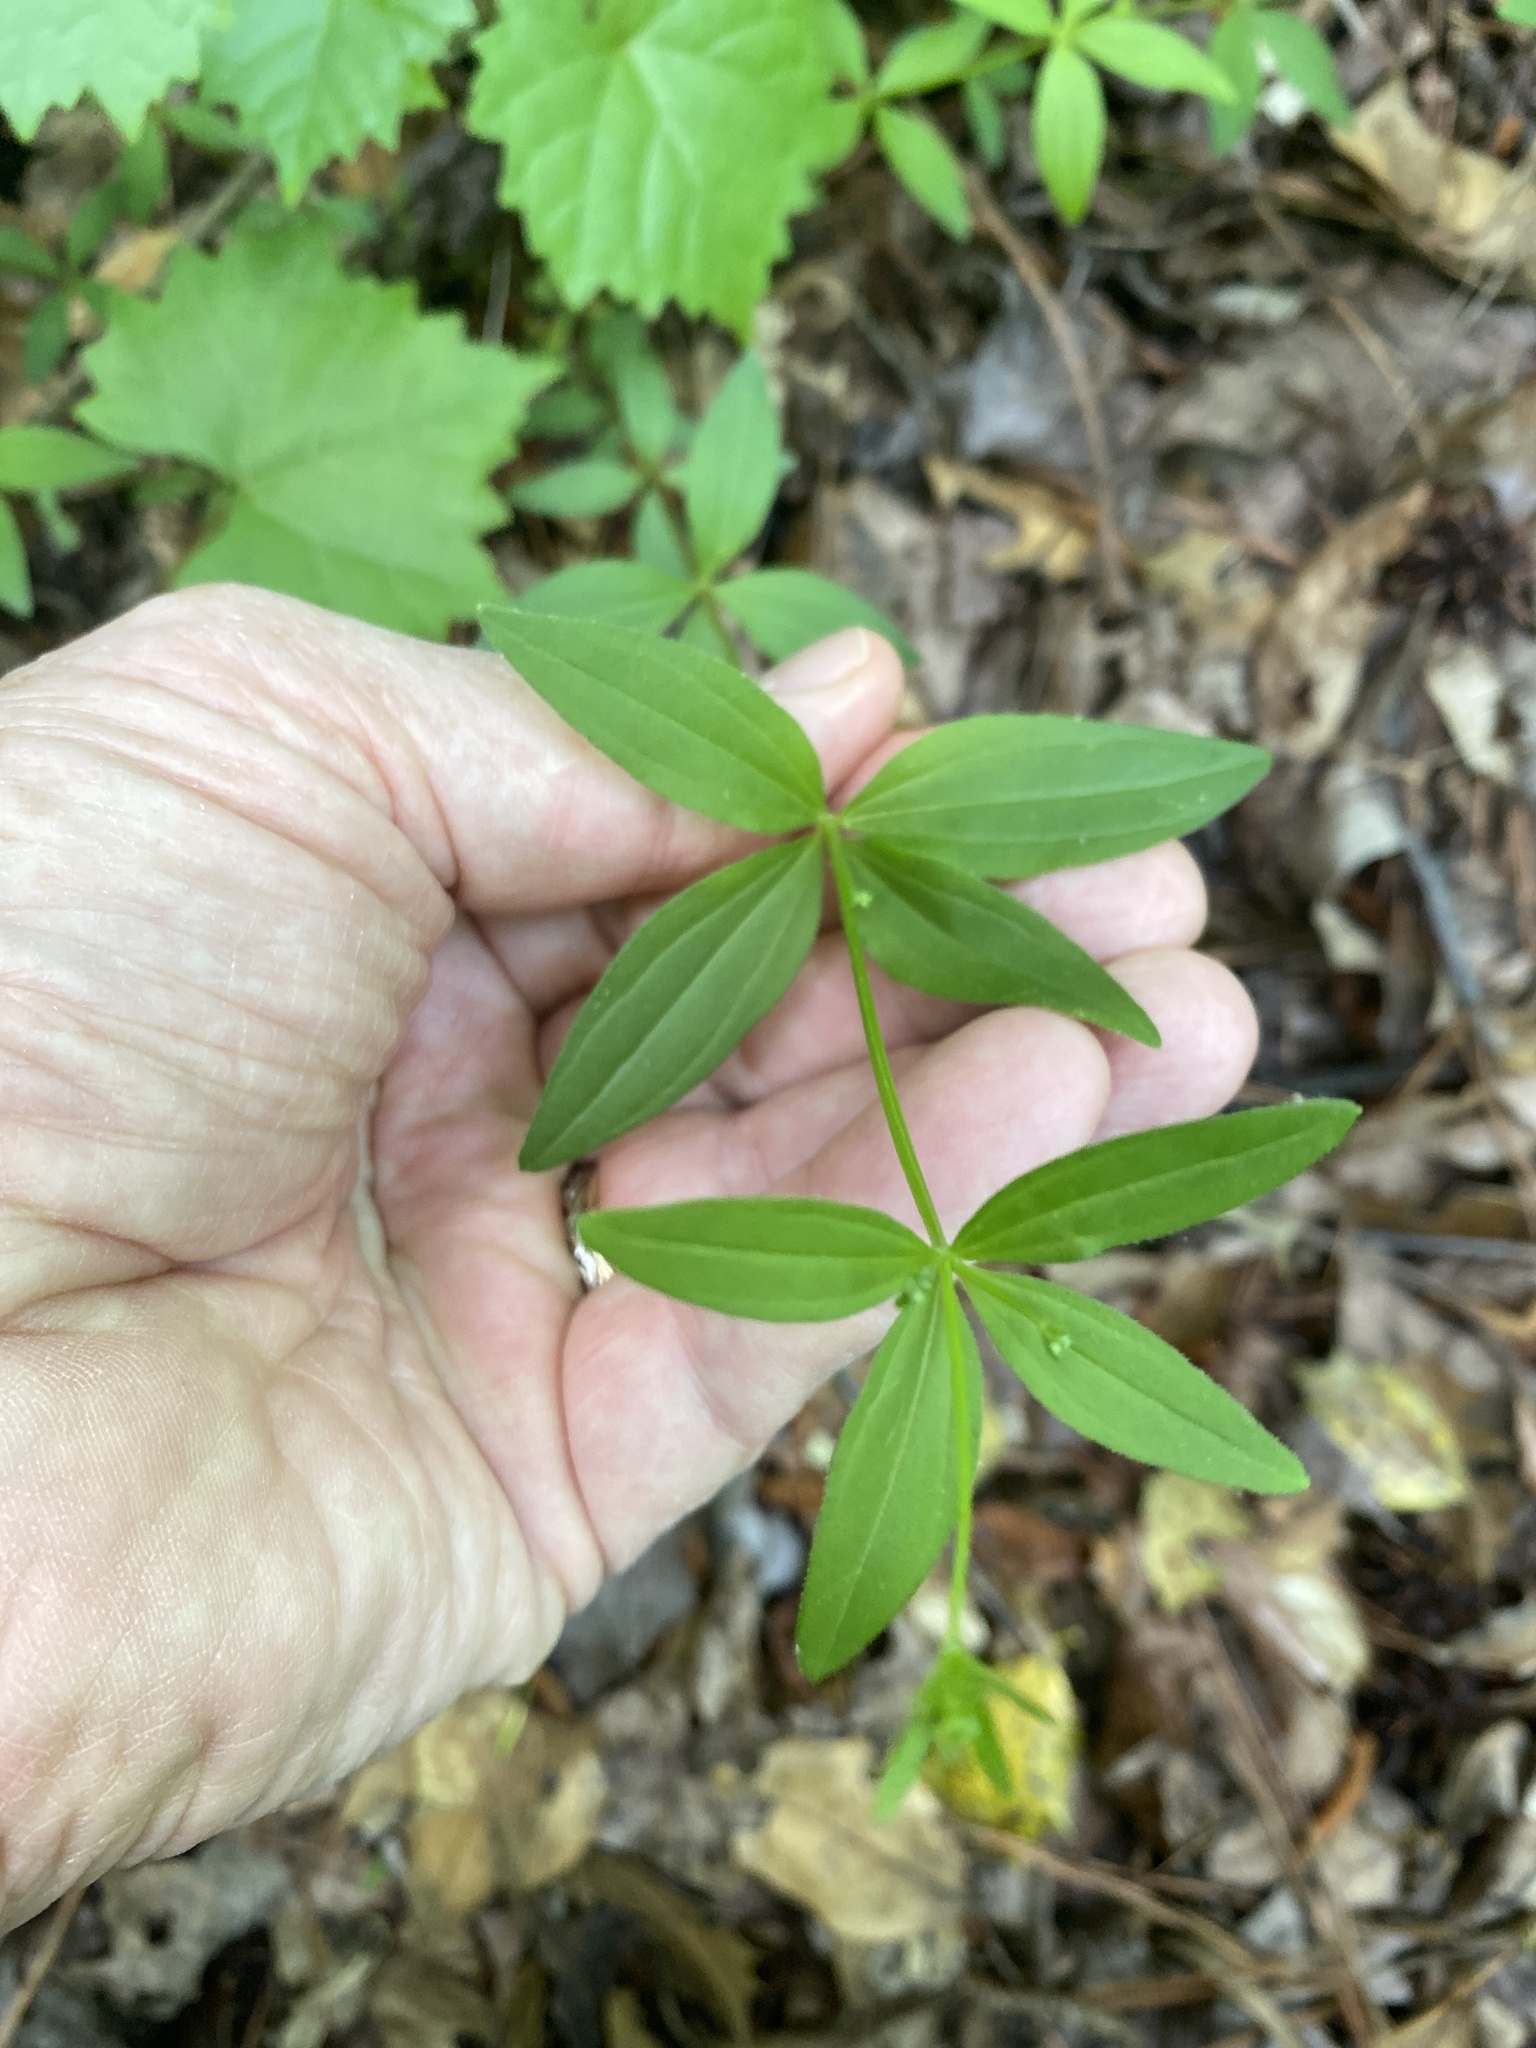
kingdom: Plantae
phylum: Tracheophyta
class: Magnoliopsida
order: Gentianales
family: Rubiaceae
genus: Galium
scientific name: Galium latifolium
